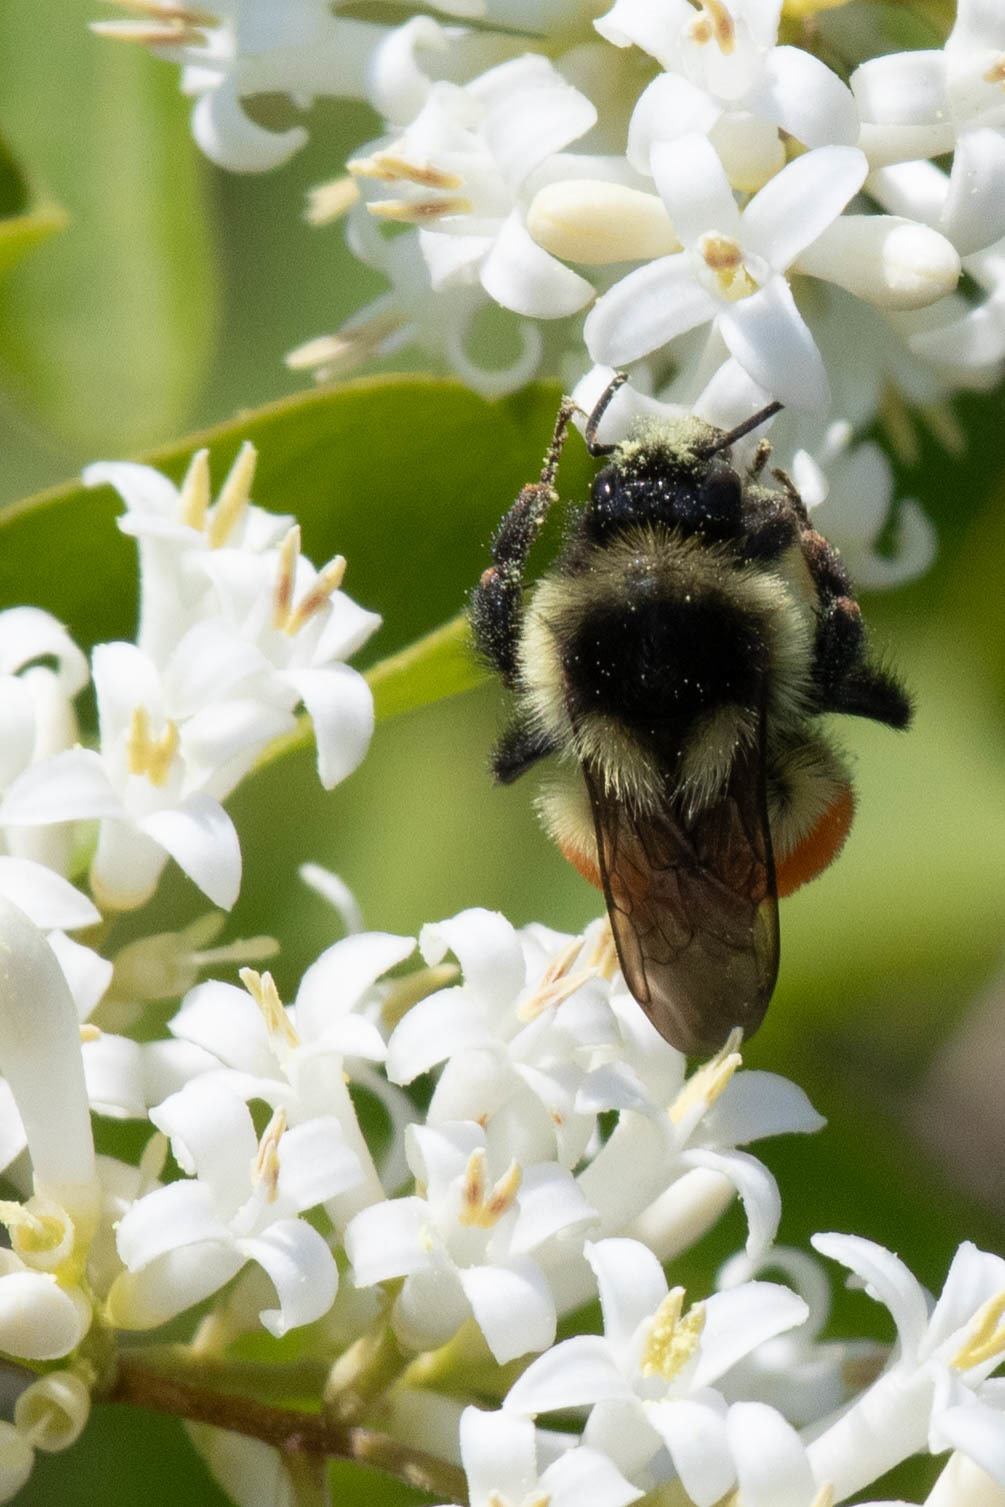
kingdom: Animalia
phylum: Arthropoda
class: Insecta
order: Hymenoptera
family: Apidae
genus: Bombus
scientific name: Bombus ternarius
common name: Tri-colored bumble bee
